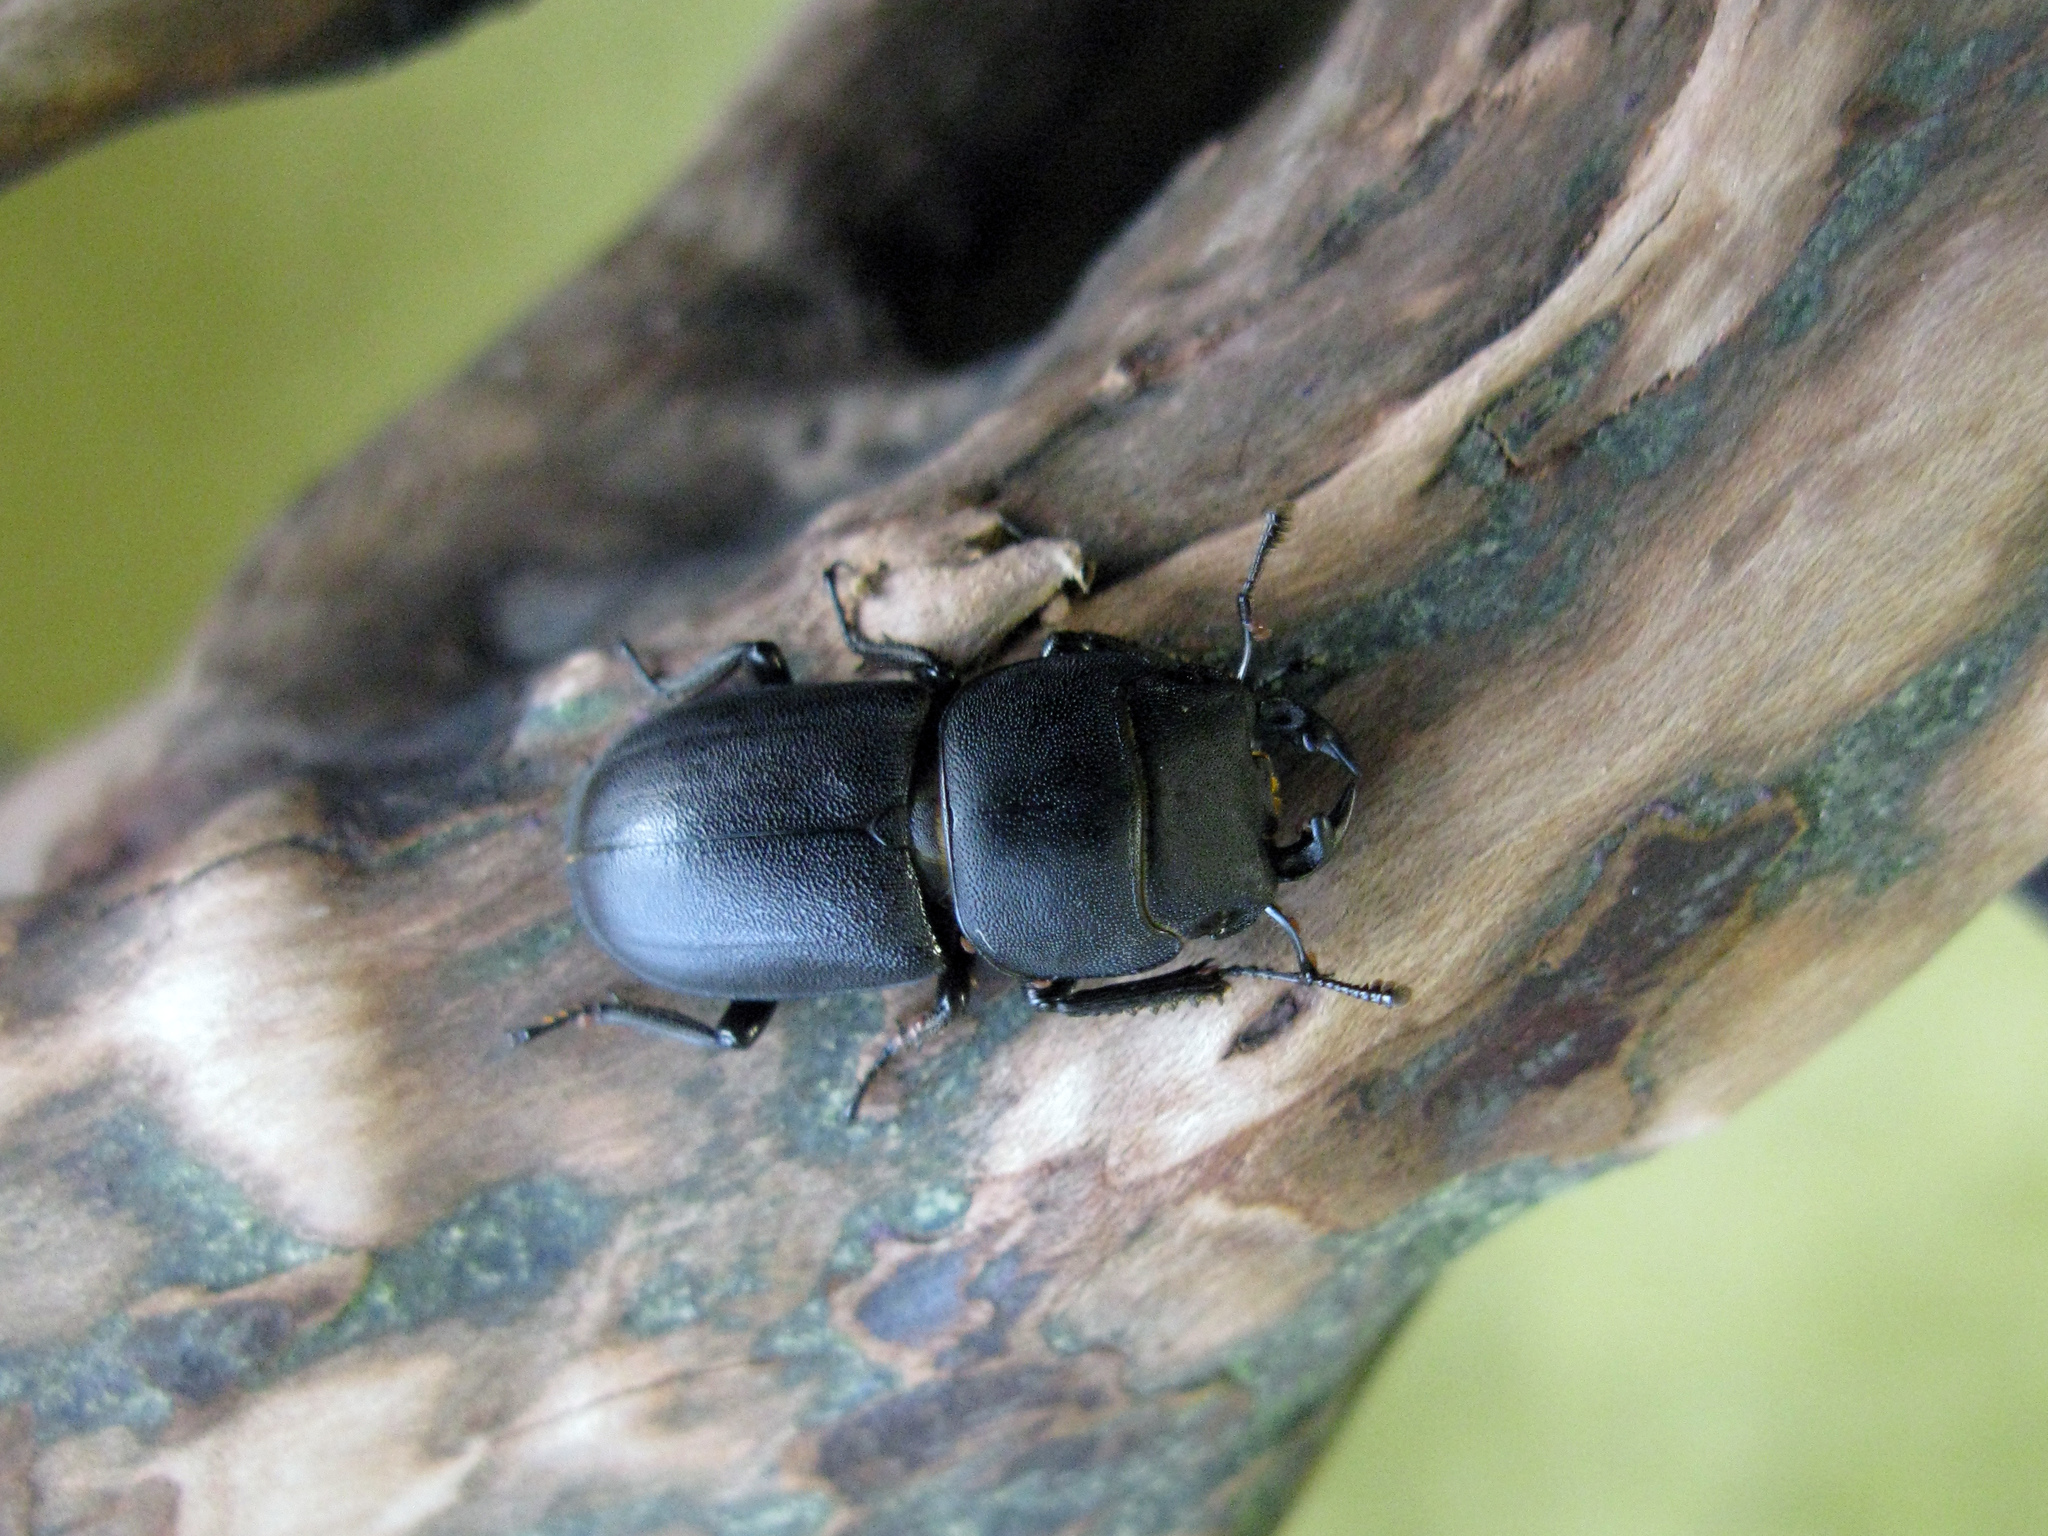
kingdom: Animalia
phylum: Arthropoda
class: Insecta
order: Coleoptera
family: Lucanidae
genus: Dorcus
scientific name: Dorcus parallelipipedus
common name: Lesser stag beetle
